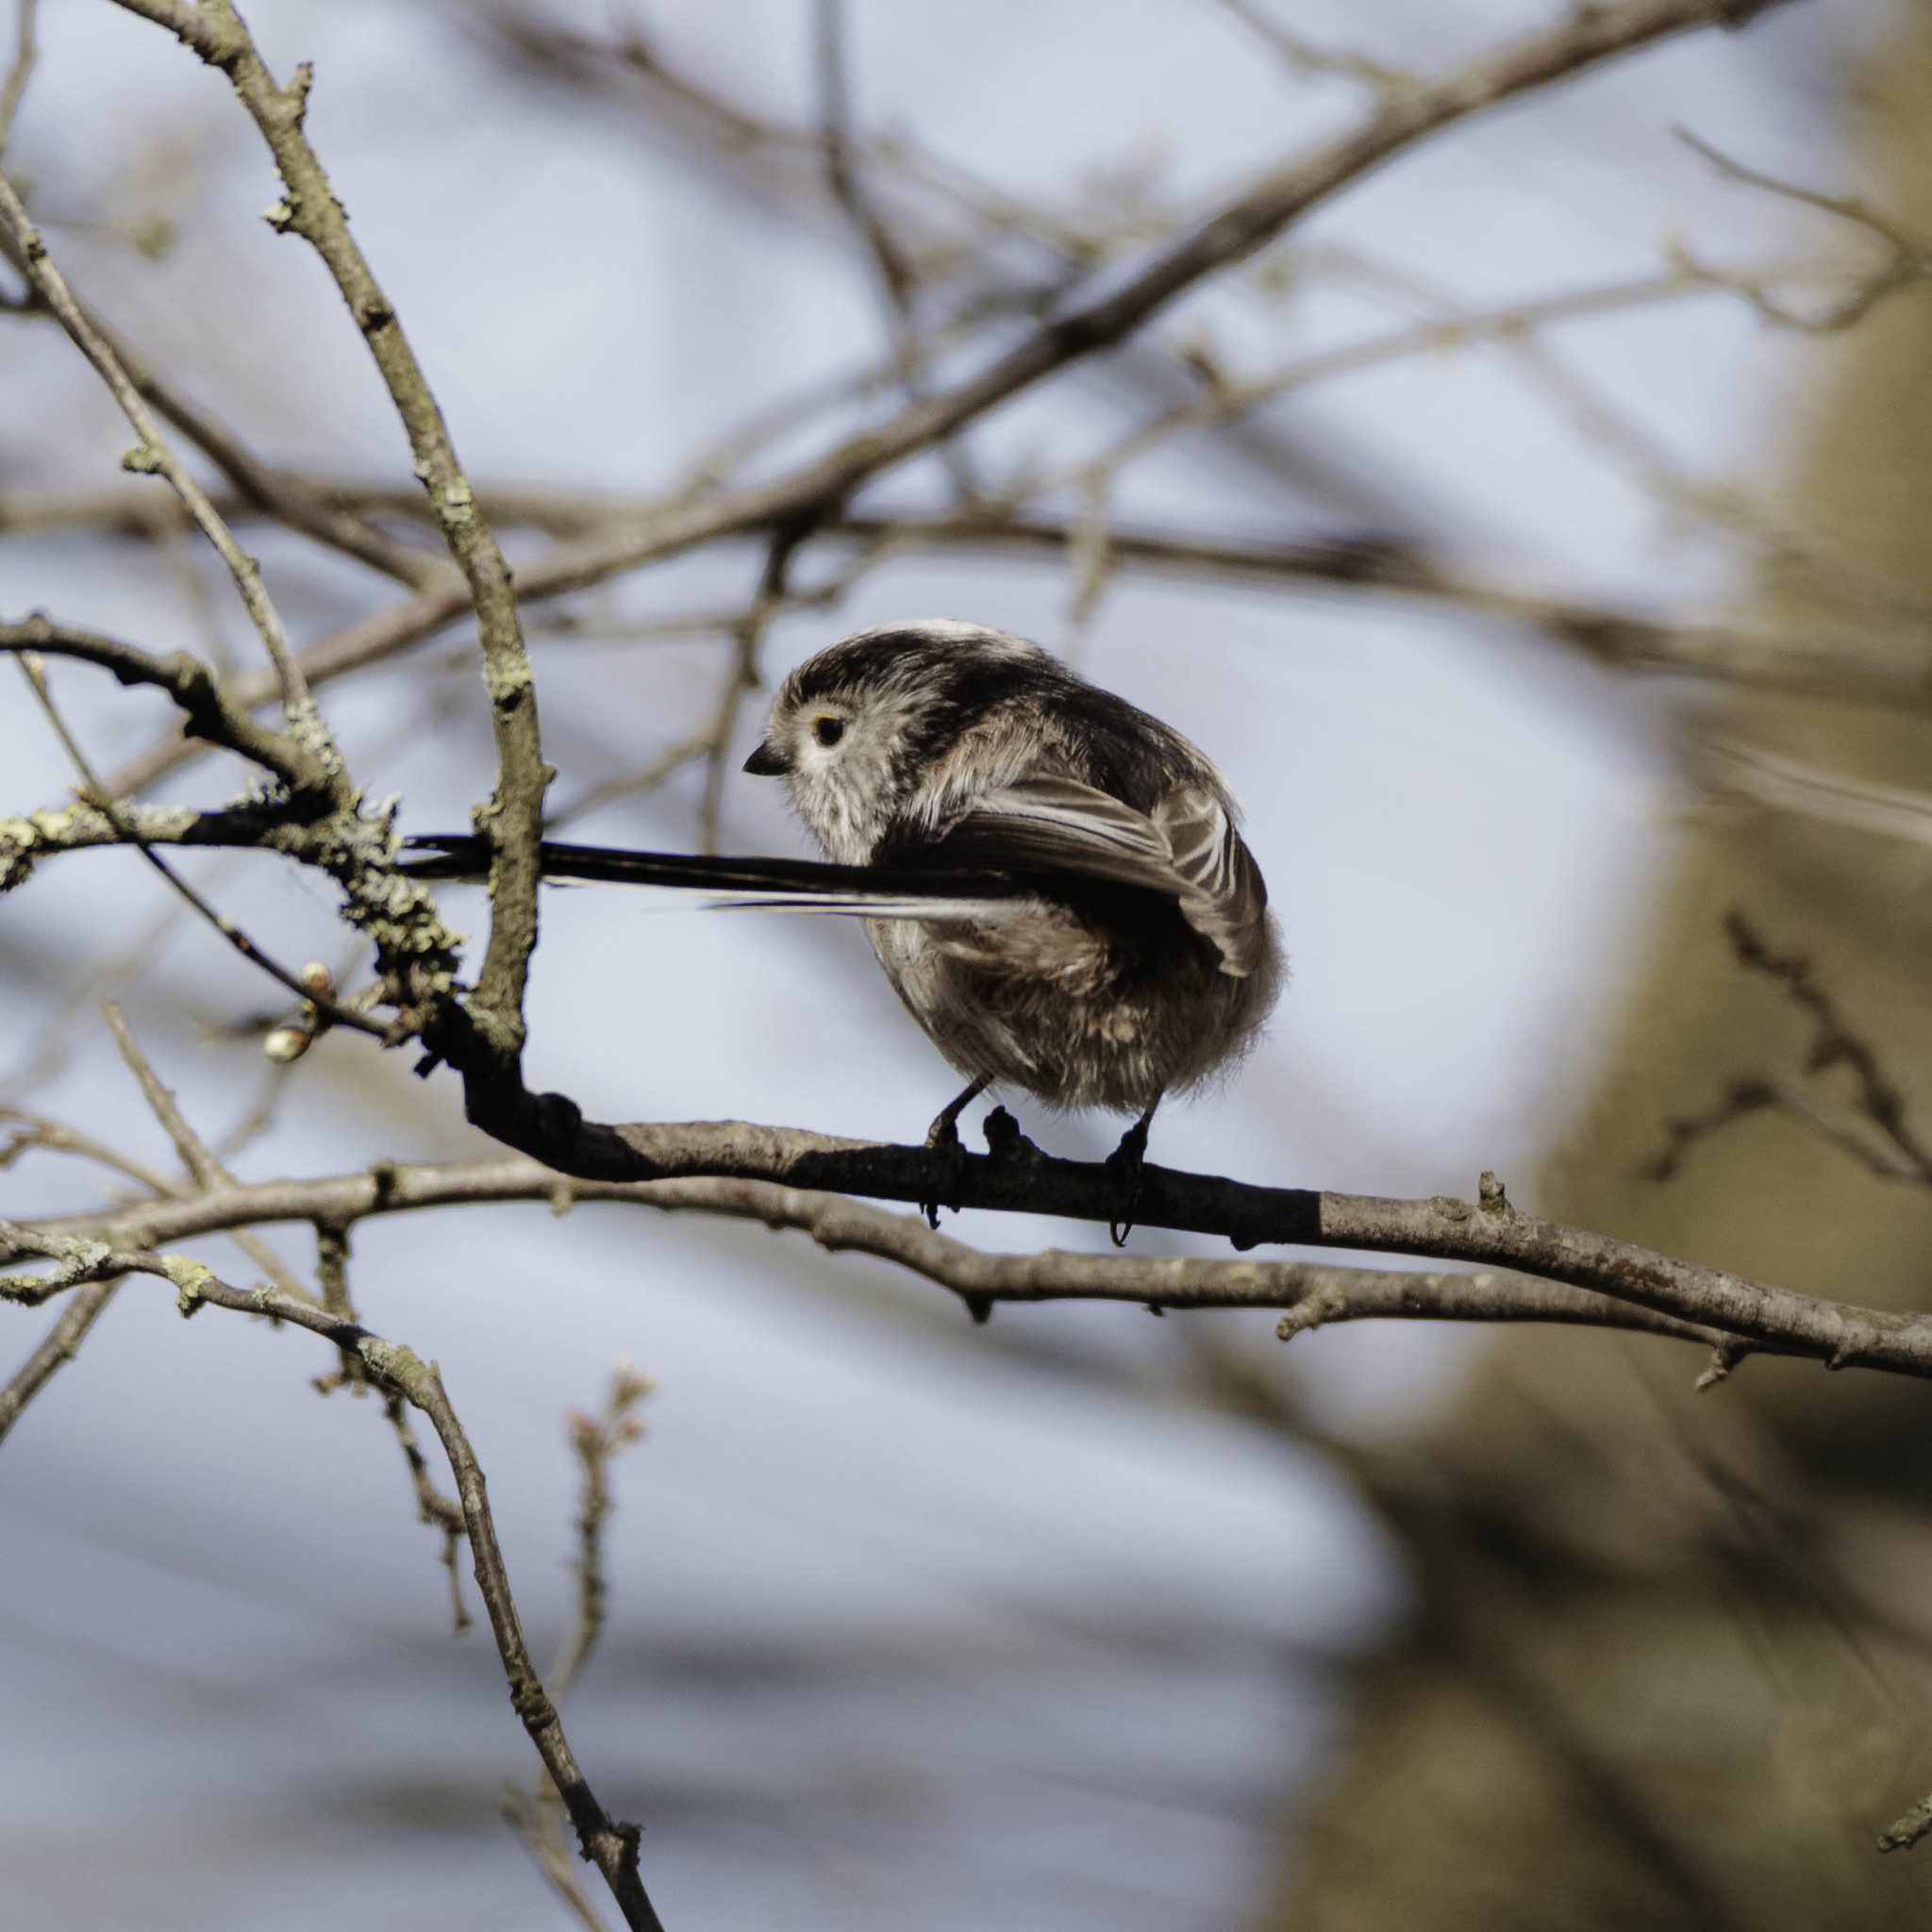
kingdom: Animalia
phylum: Chordata
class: Aves
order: Passeriformes
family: Aegithalidae
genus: Aegithalos
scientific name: Aegithalos caudatus
